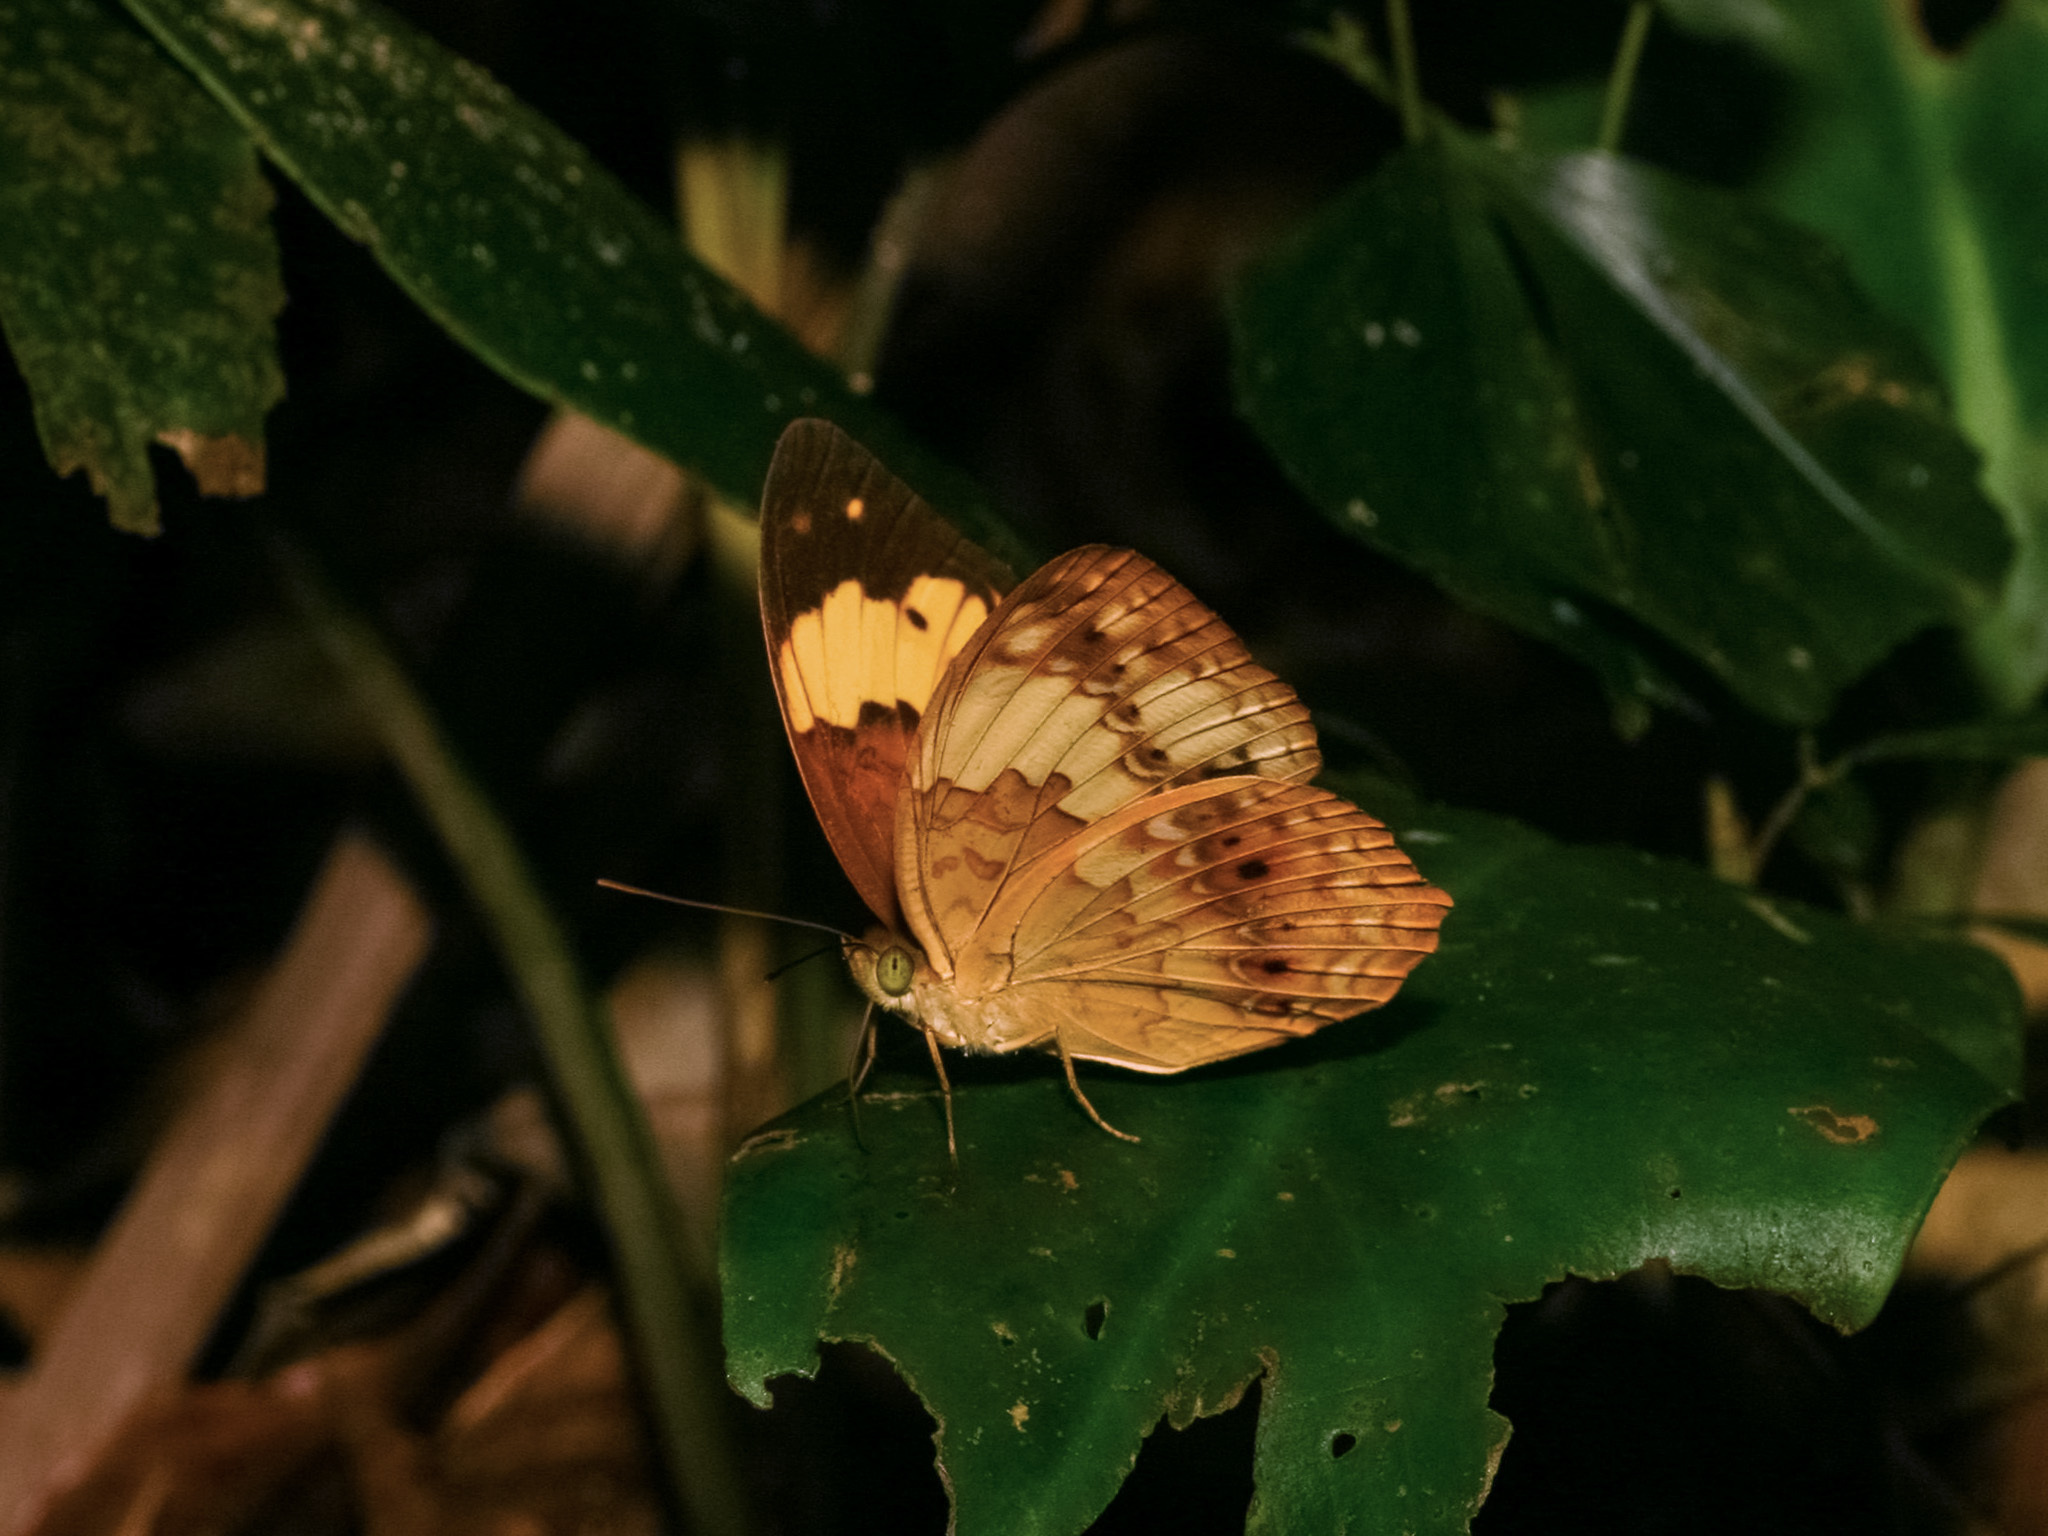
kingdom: Animalia
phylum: Arthropoda
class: Insecta
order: Lepidoptera
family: Nymphalidae
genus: Cupha
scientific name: Cupha erymanthis
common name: Rustic
